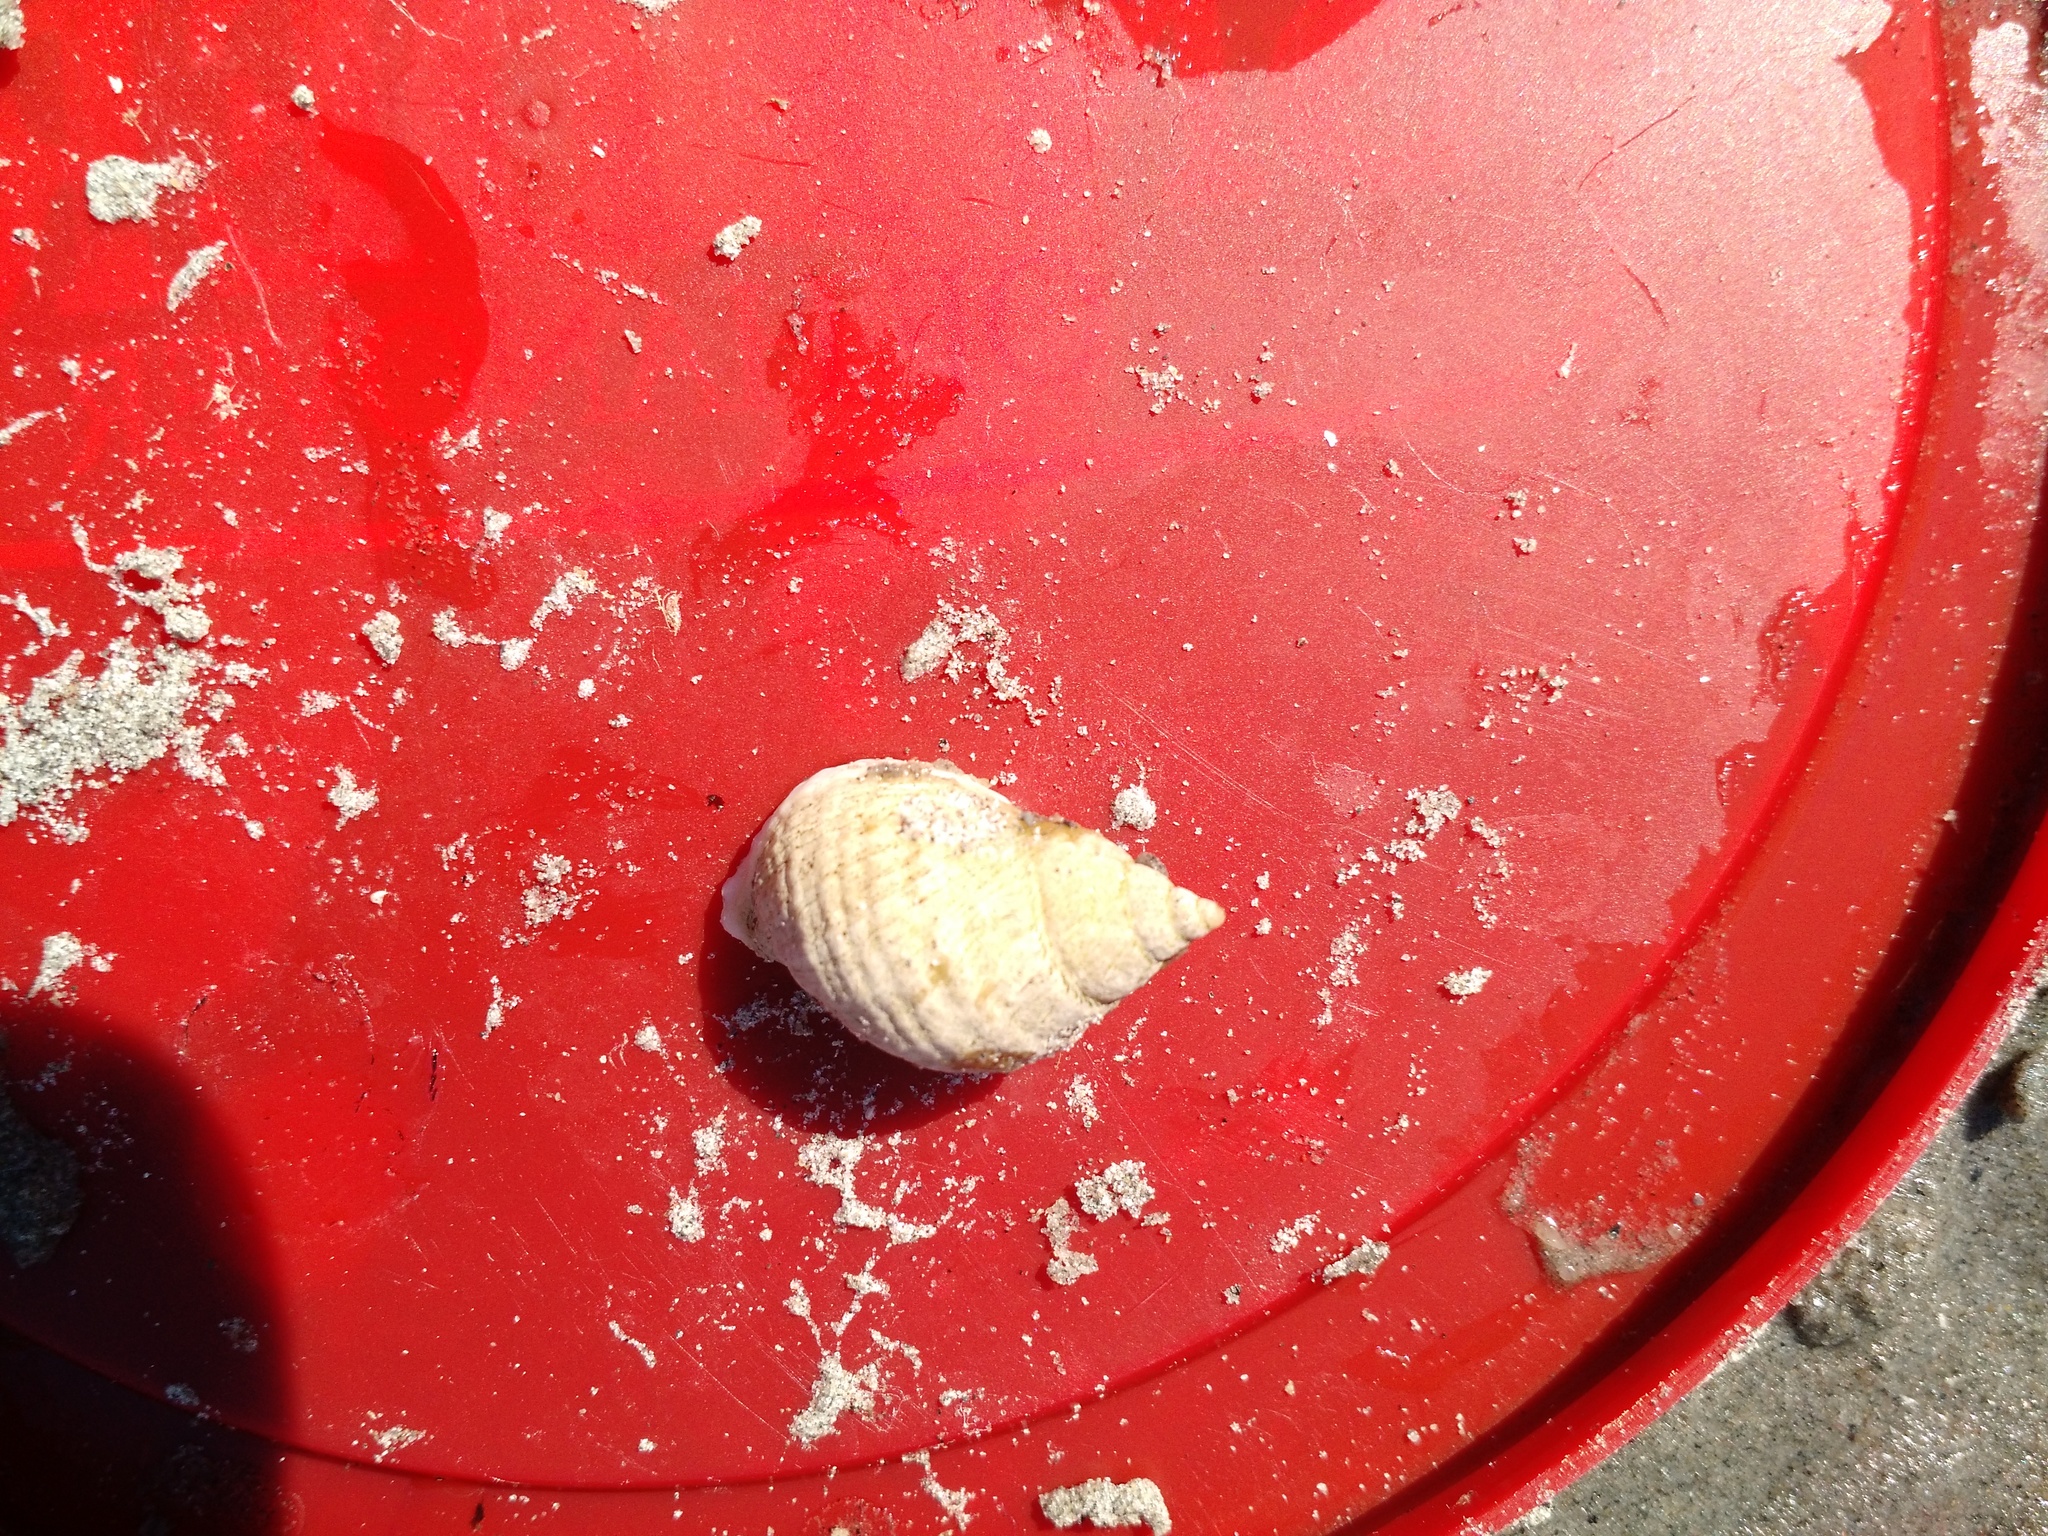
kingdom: Animalia
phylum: Mollusca
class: Gastropoda
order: Neogastropoda
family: Muricidae
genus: Nucella
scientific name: Nucella lapillus
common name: Dog whelk
